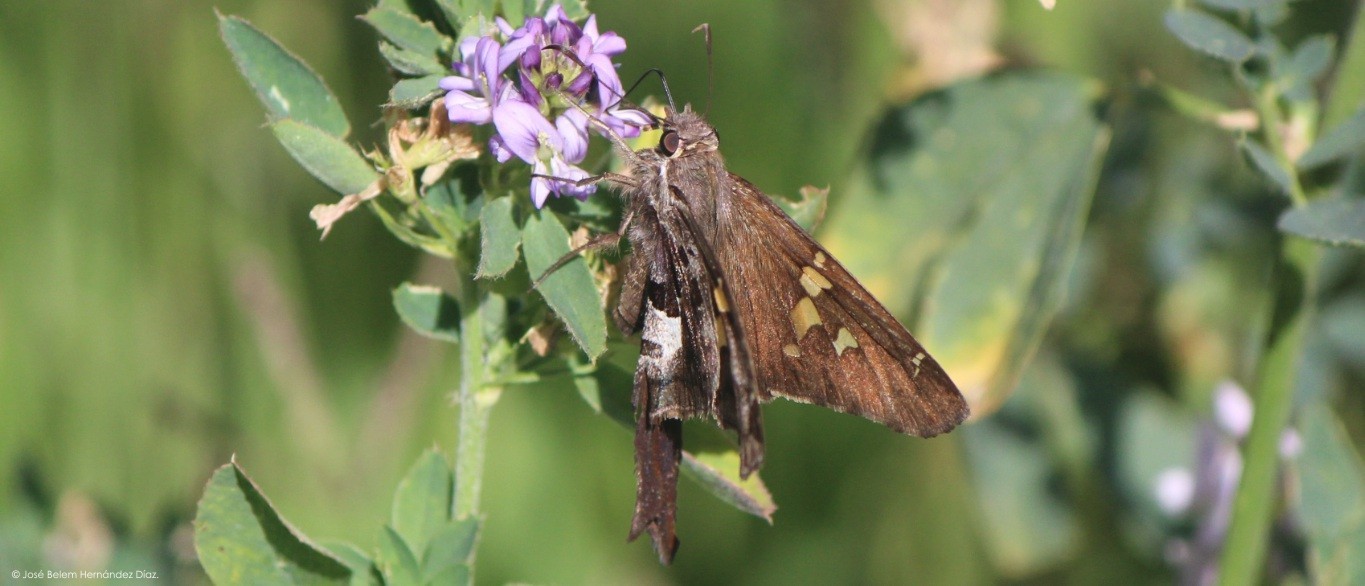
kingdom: Animalia
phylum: Arthropoda
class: Insecta
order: Lepidoptera
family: Hesperiidae
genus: Chioides
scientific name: Chioides zilpa
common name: Zilpa longtail
